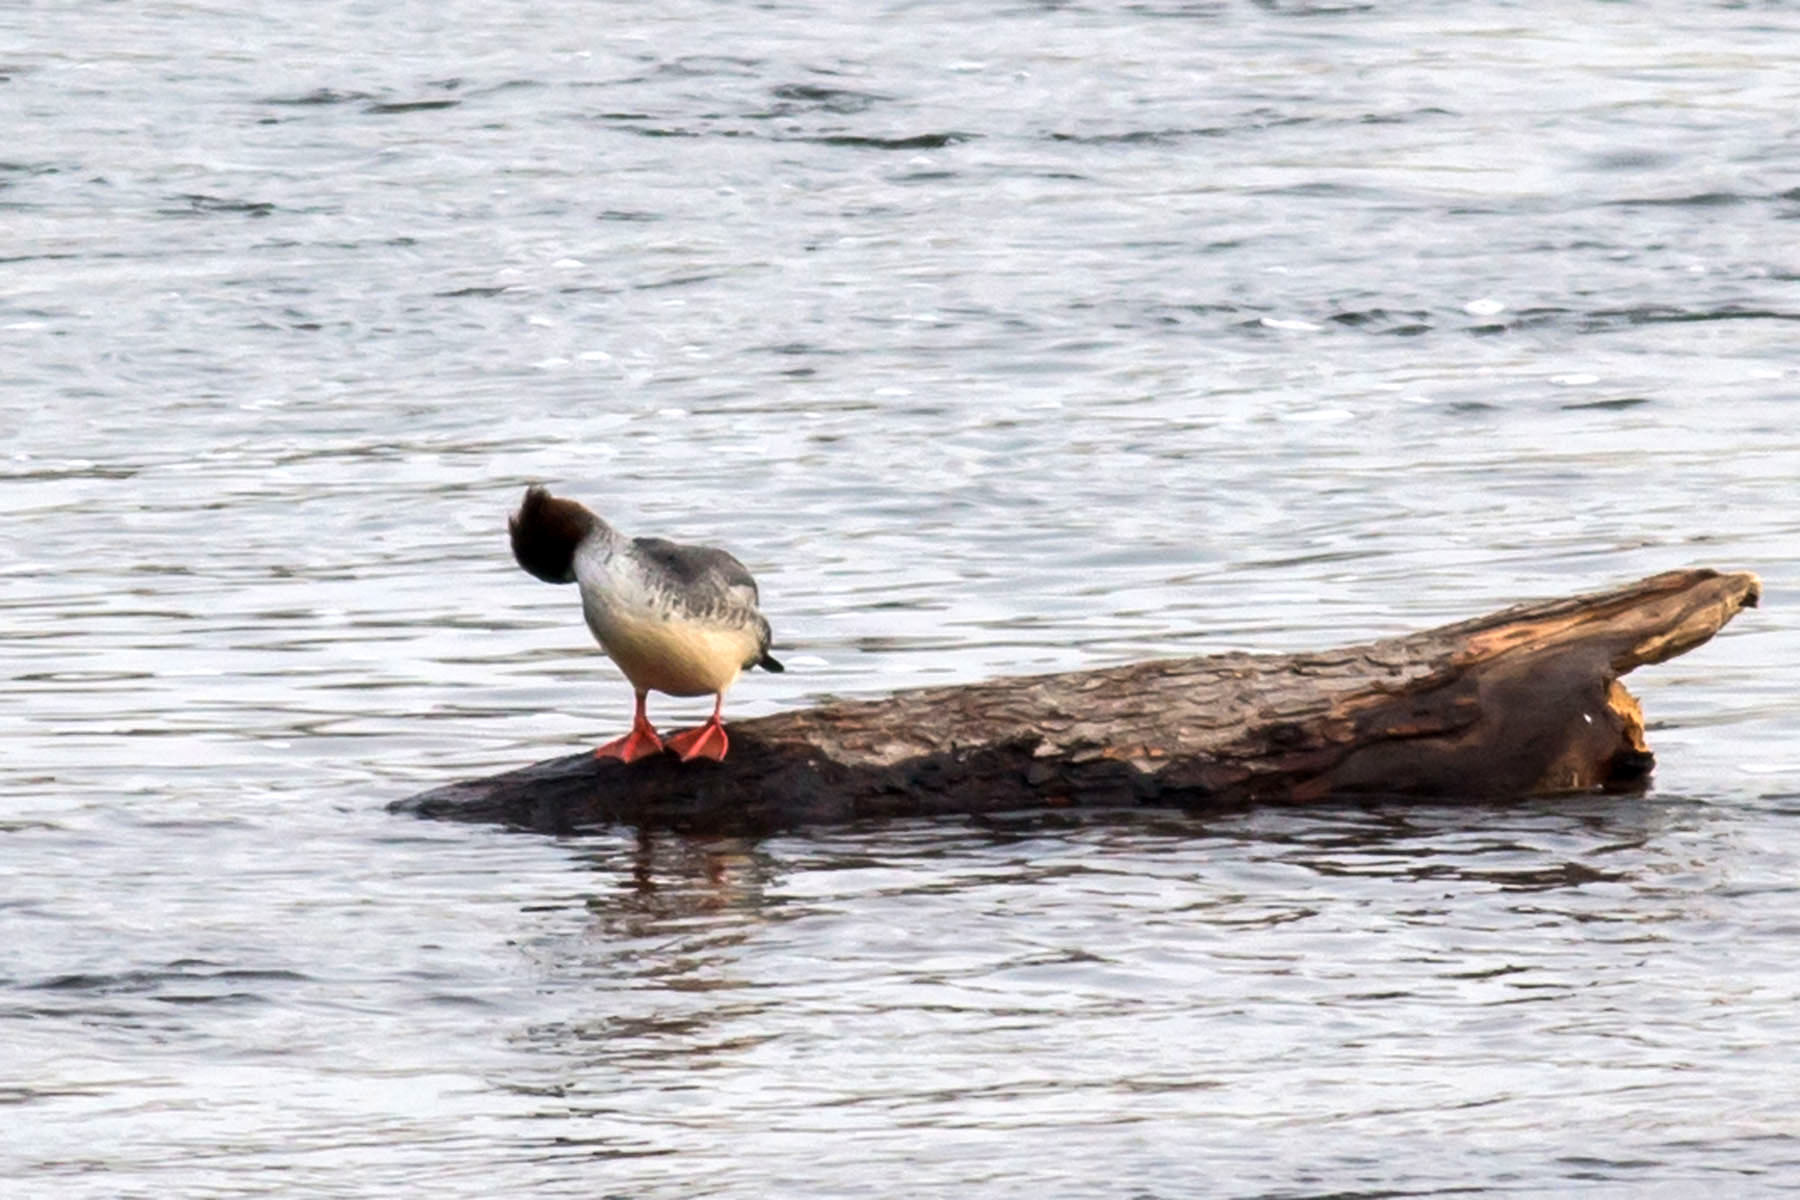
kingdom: Animalia
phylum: Chordata
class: Aves
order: Anseriformes
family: Anatidae
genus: Mergus
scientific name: Mergus merganser
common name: Common merganser
